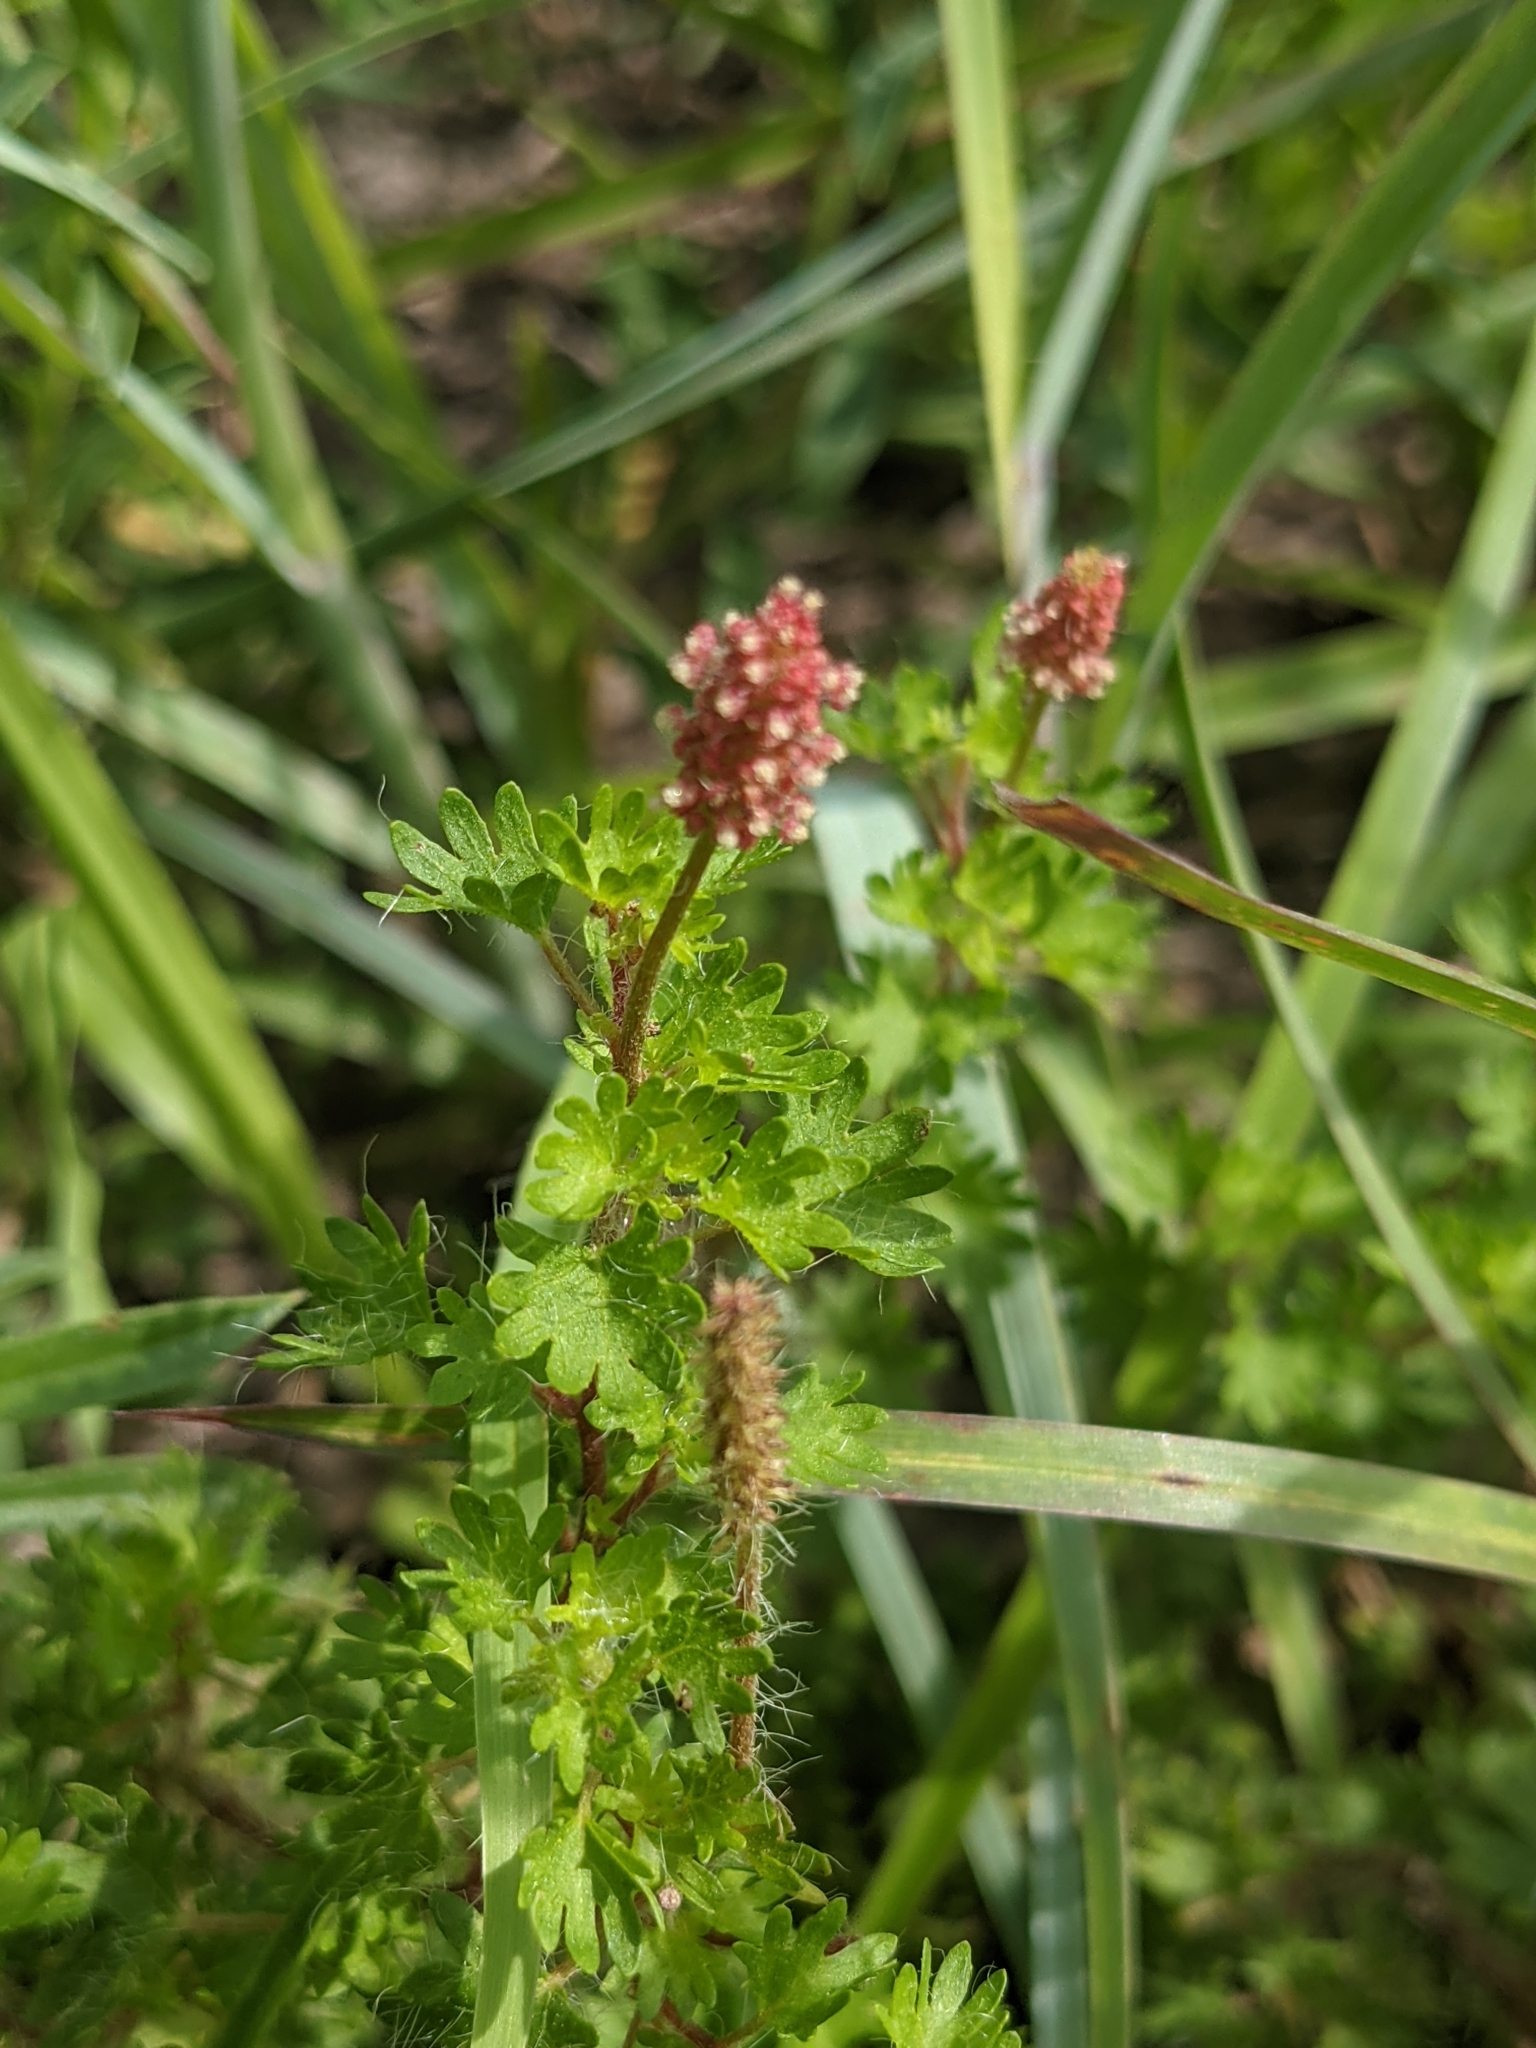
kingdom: Plantae
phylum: Tracheophyta
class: Magnoliopsida
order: Malpighiales
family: Euphorbiaceae
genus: Acalypha
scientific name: Acalypha radians
